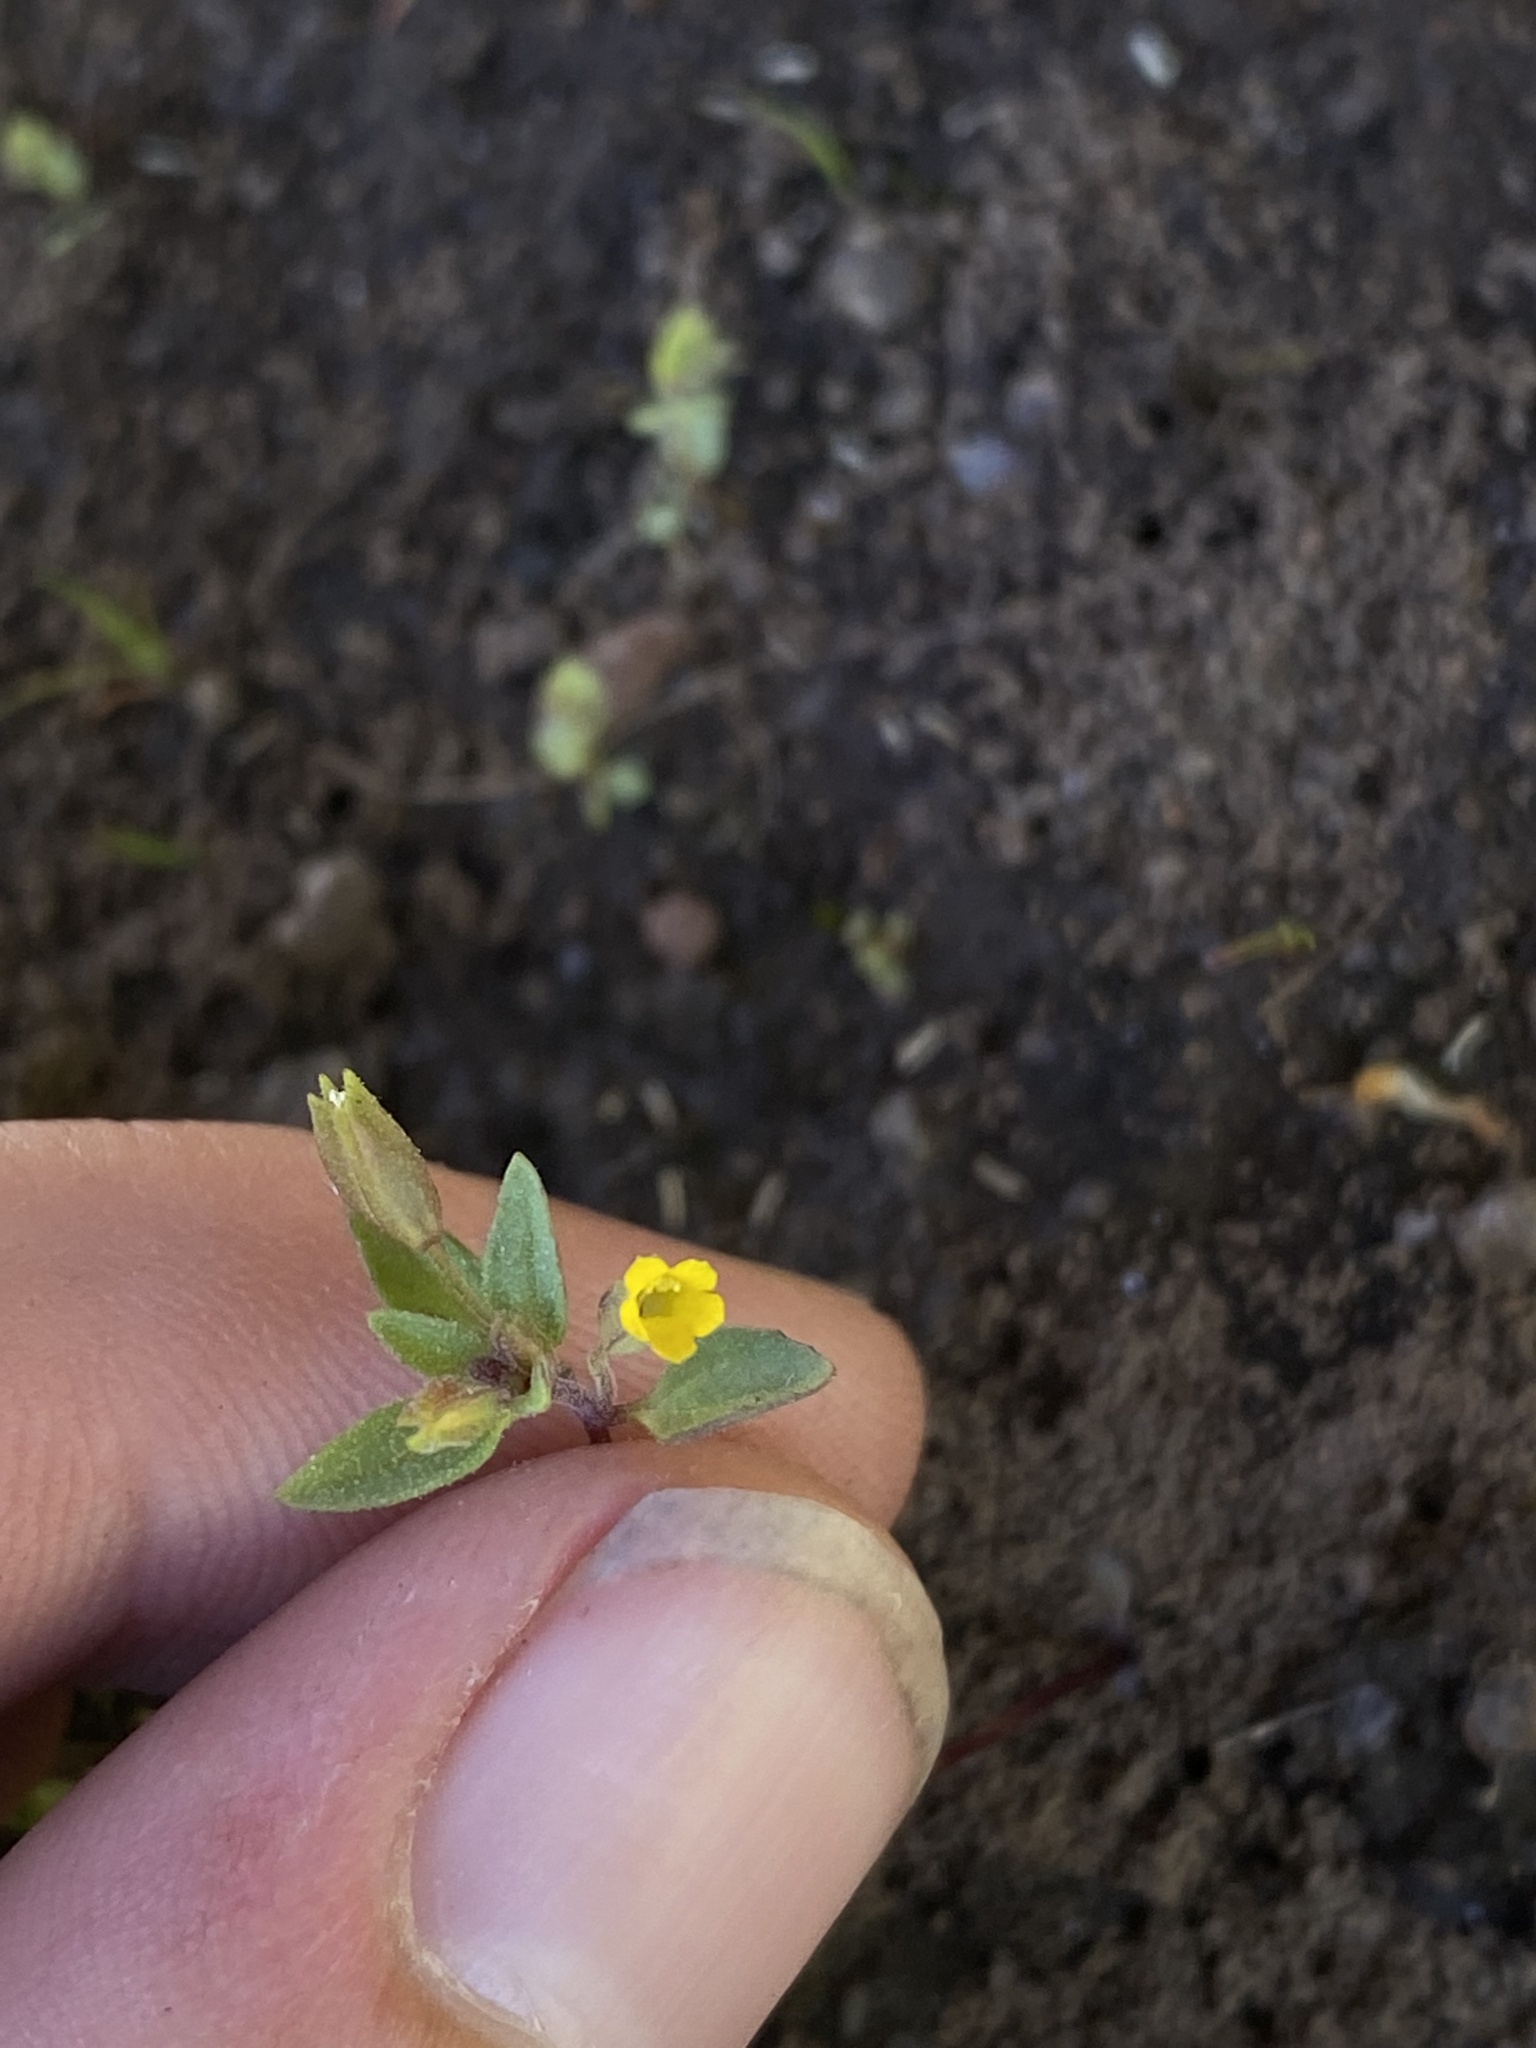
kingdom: Plantae
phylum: Tracheophyta
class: Magnoliopsida
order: Lamiales
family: Phrymaceae
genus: Erythranthe
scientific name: Erythranthe breviflora
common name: Short-flowered monkeyflower
